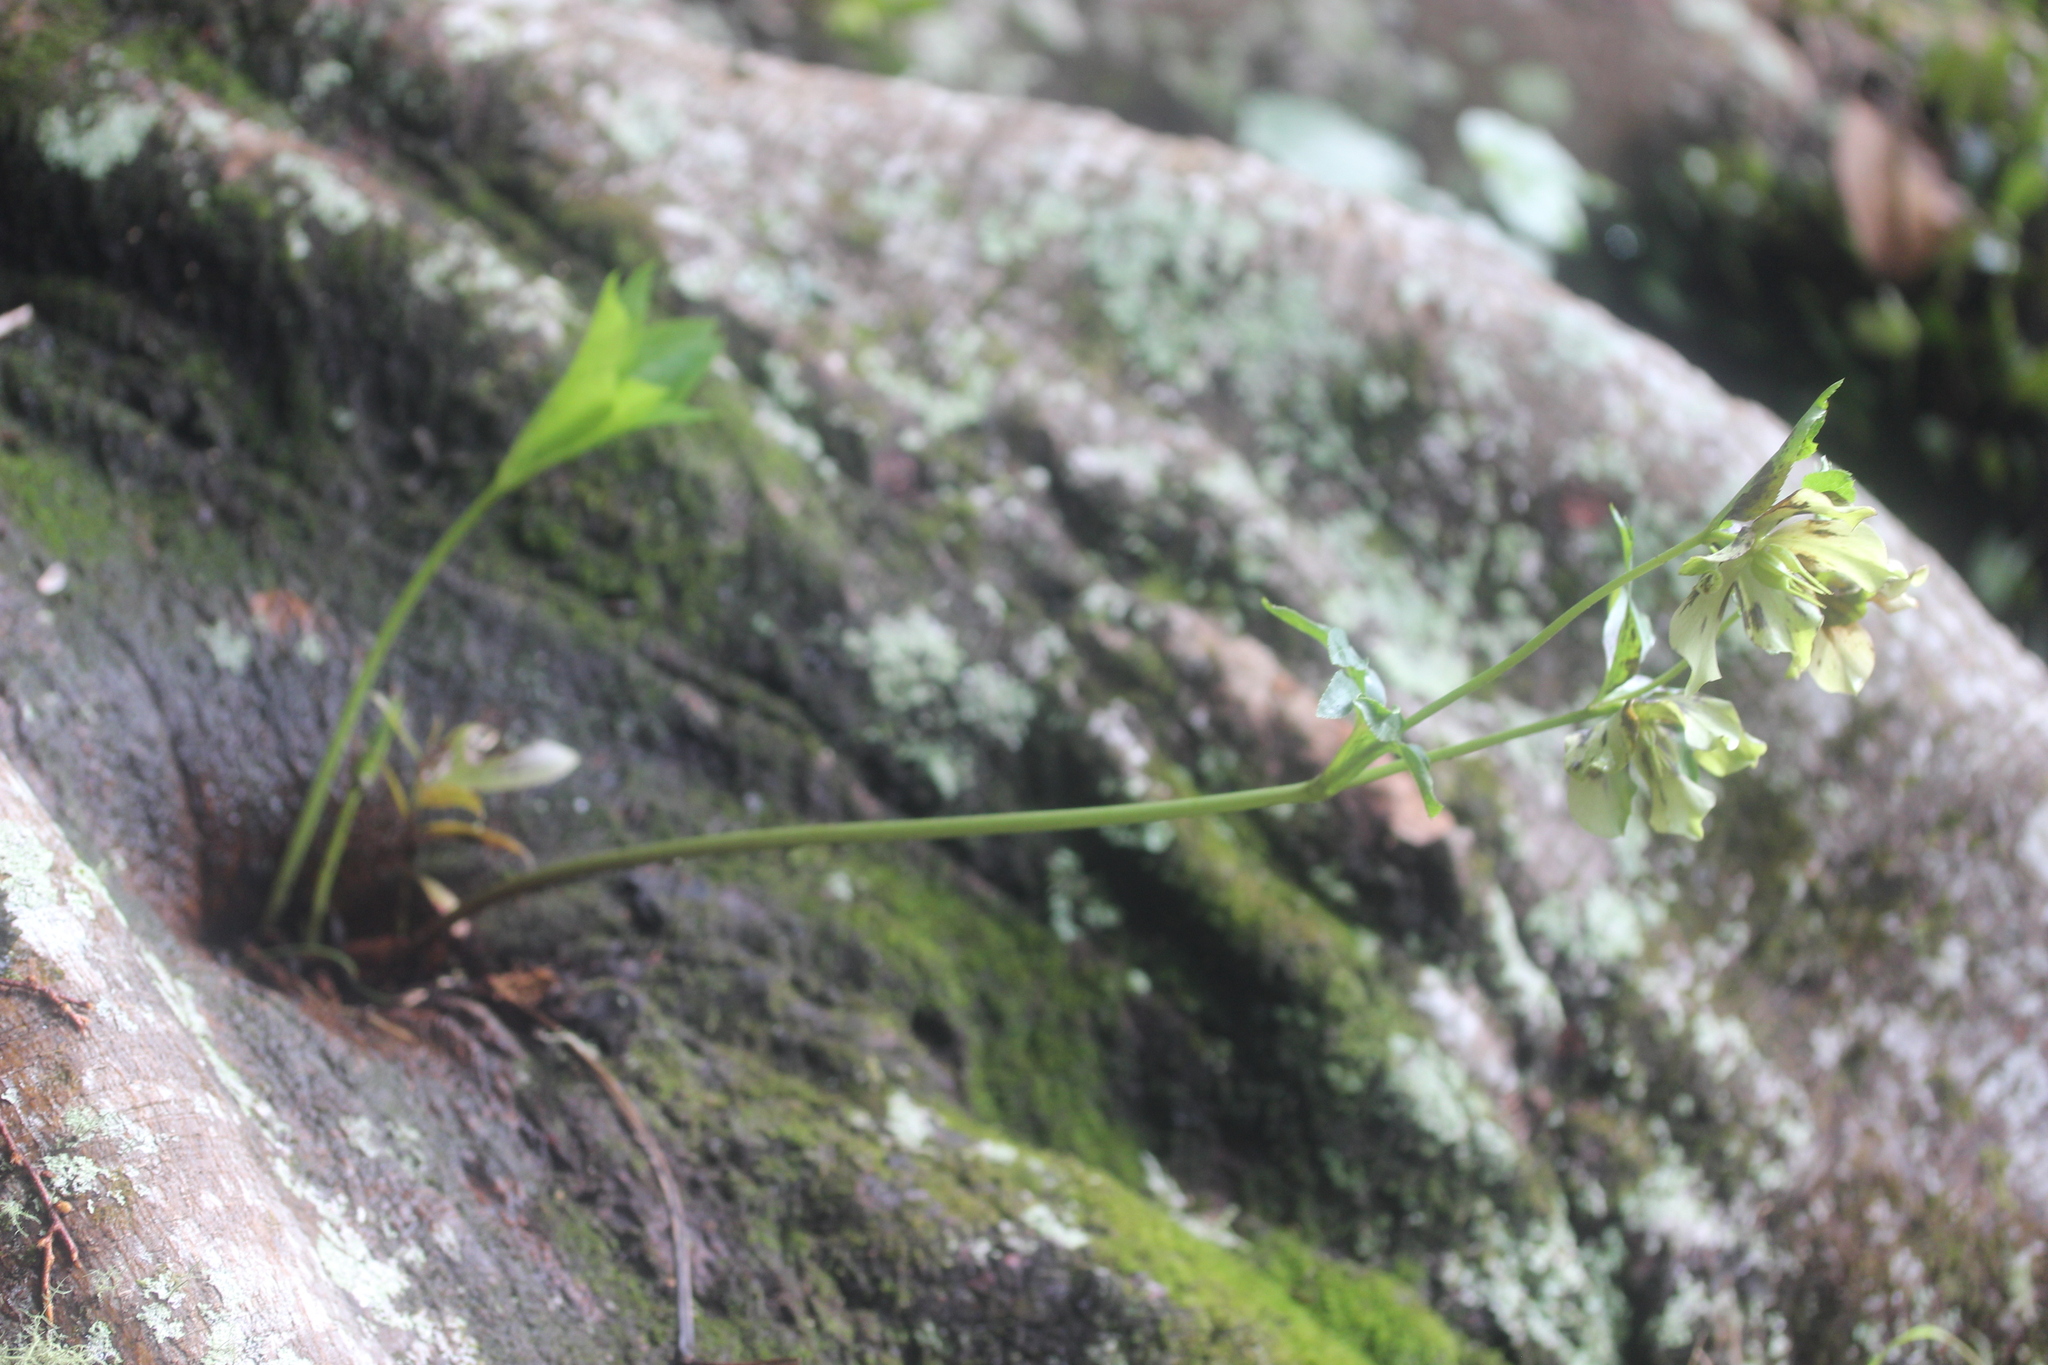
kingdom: Plantae
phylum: Tracheophyta
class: Magnoliopsida
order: Ranunculales
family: Ranunculaceae
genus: Helleborus
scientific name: Helleborus orientalis
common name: Lenten-rose
